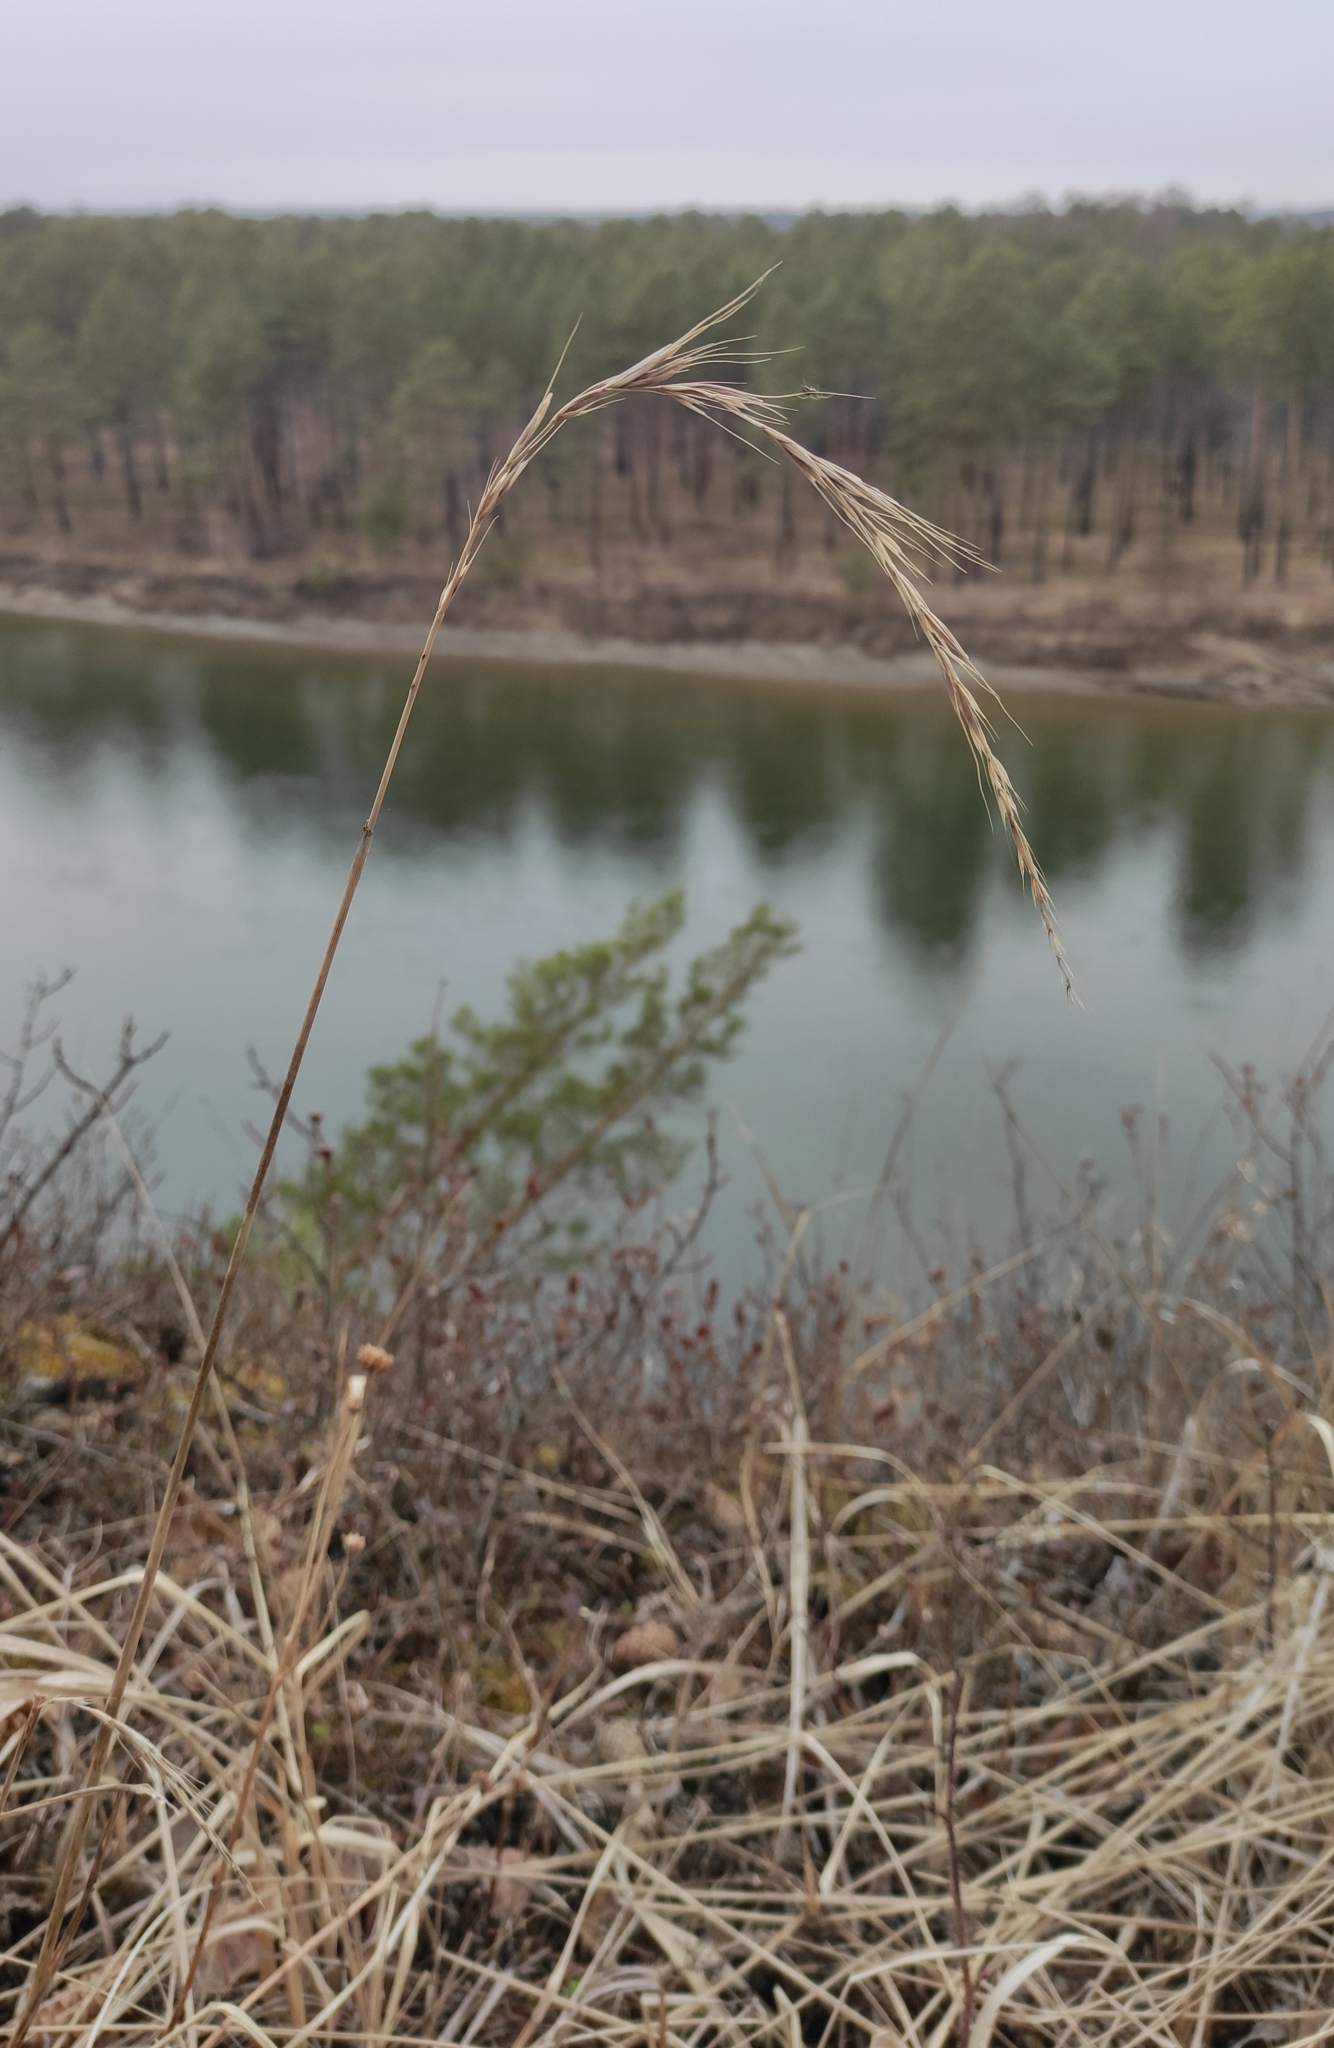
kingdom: Plantae
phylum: Tracheophyta
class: Liliopsida
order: Poales
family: Poaceae
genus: Elymus
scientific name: Elymus sibiricus
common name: Siberian wildrye
